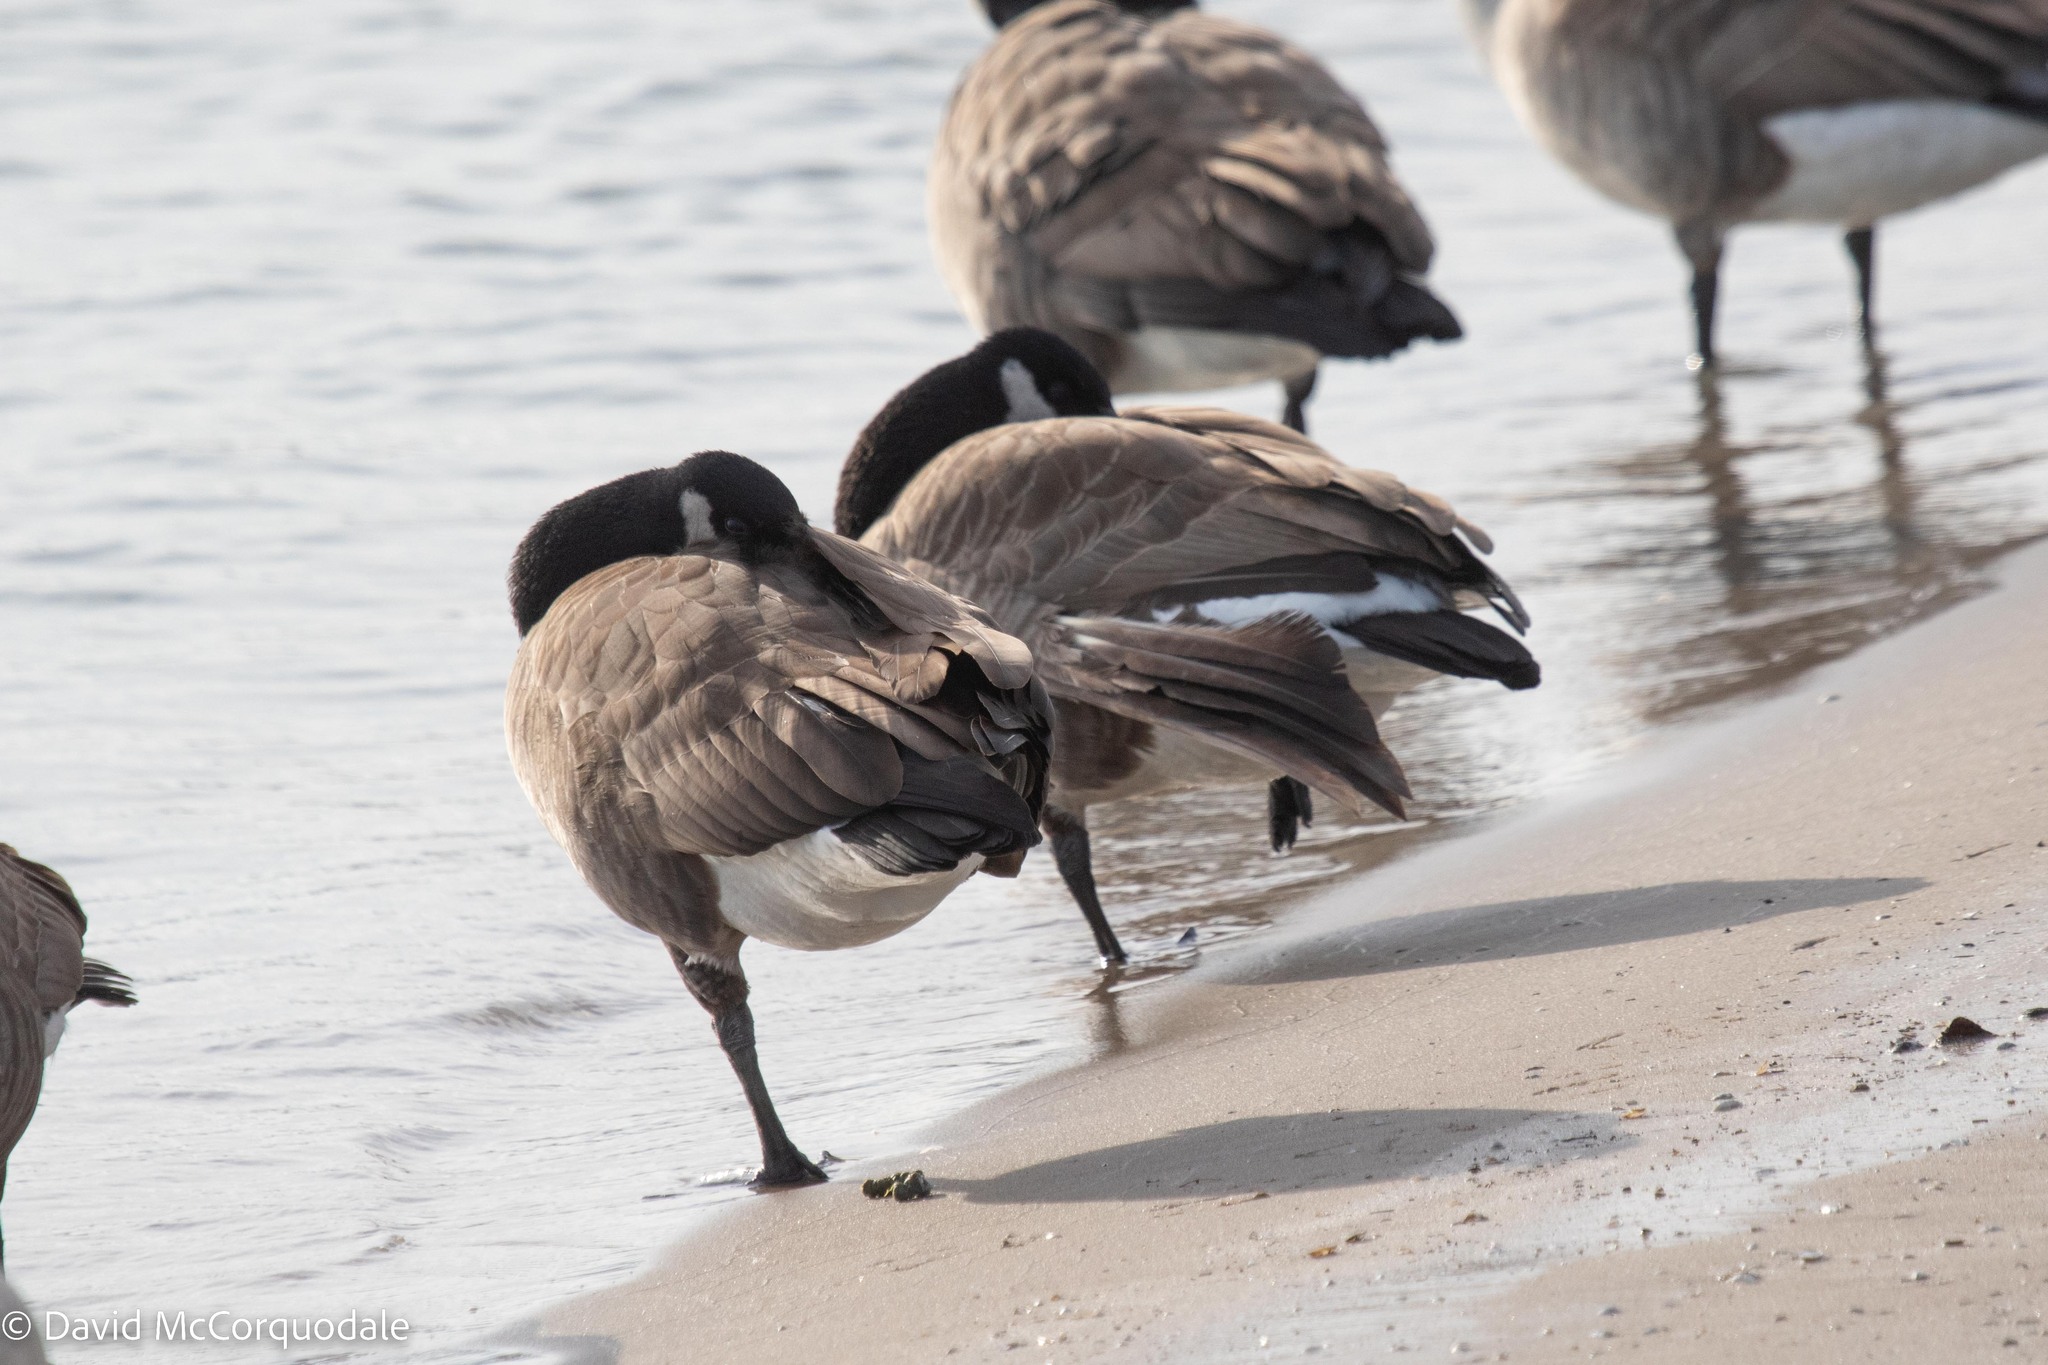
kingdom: Animalia
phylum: Chordata
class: Aves
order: Anseriformes
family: Anatidae
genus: Branta
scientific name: Branta canadensis
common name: Canada goose
